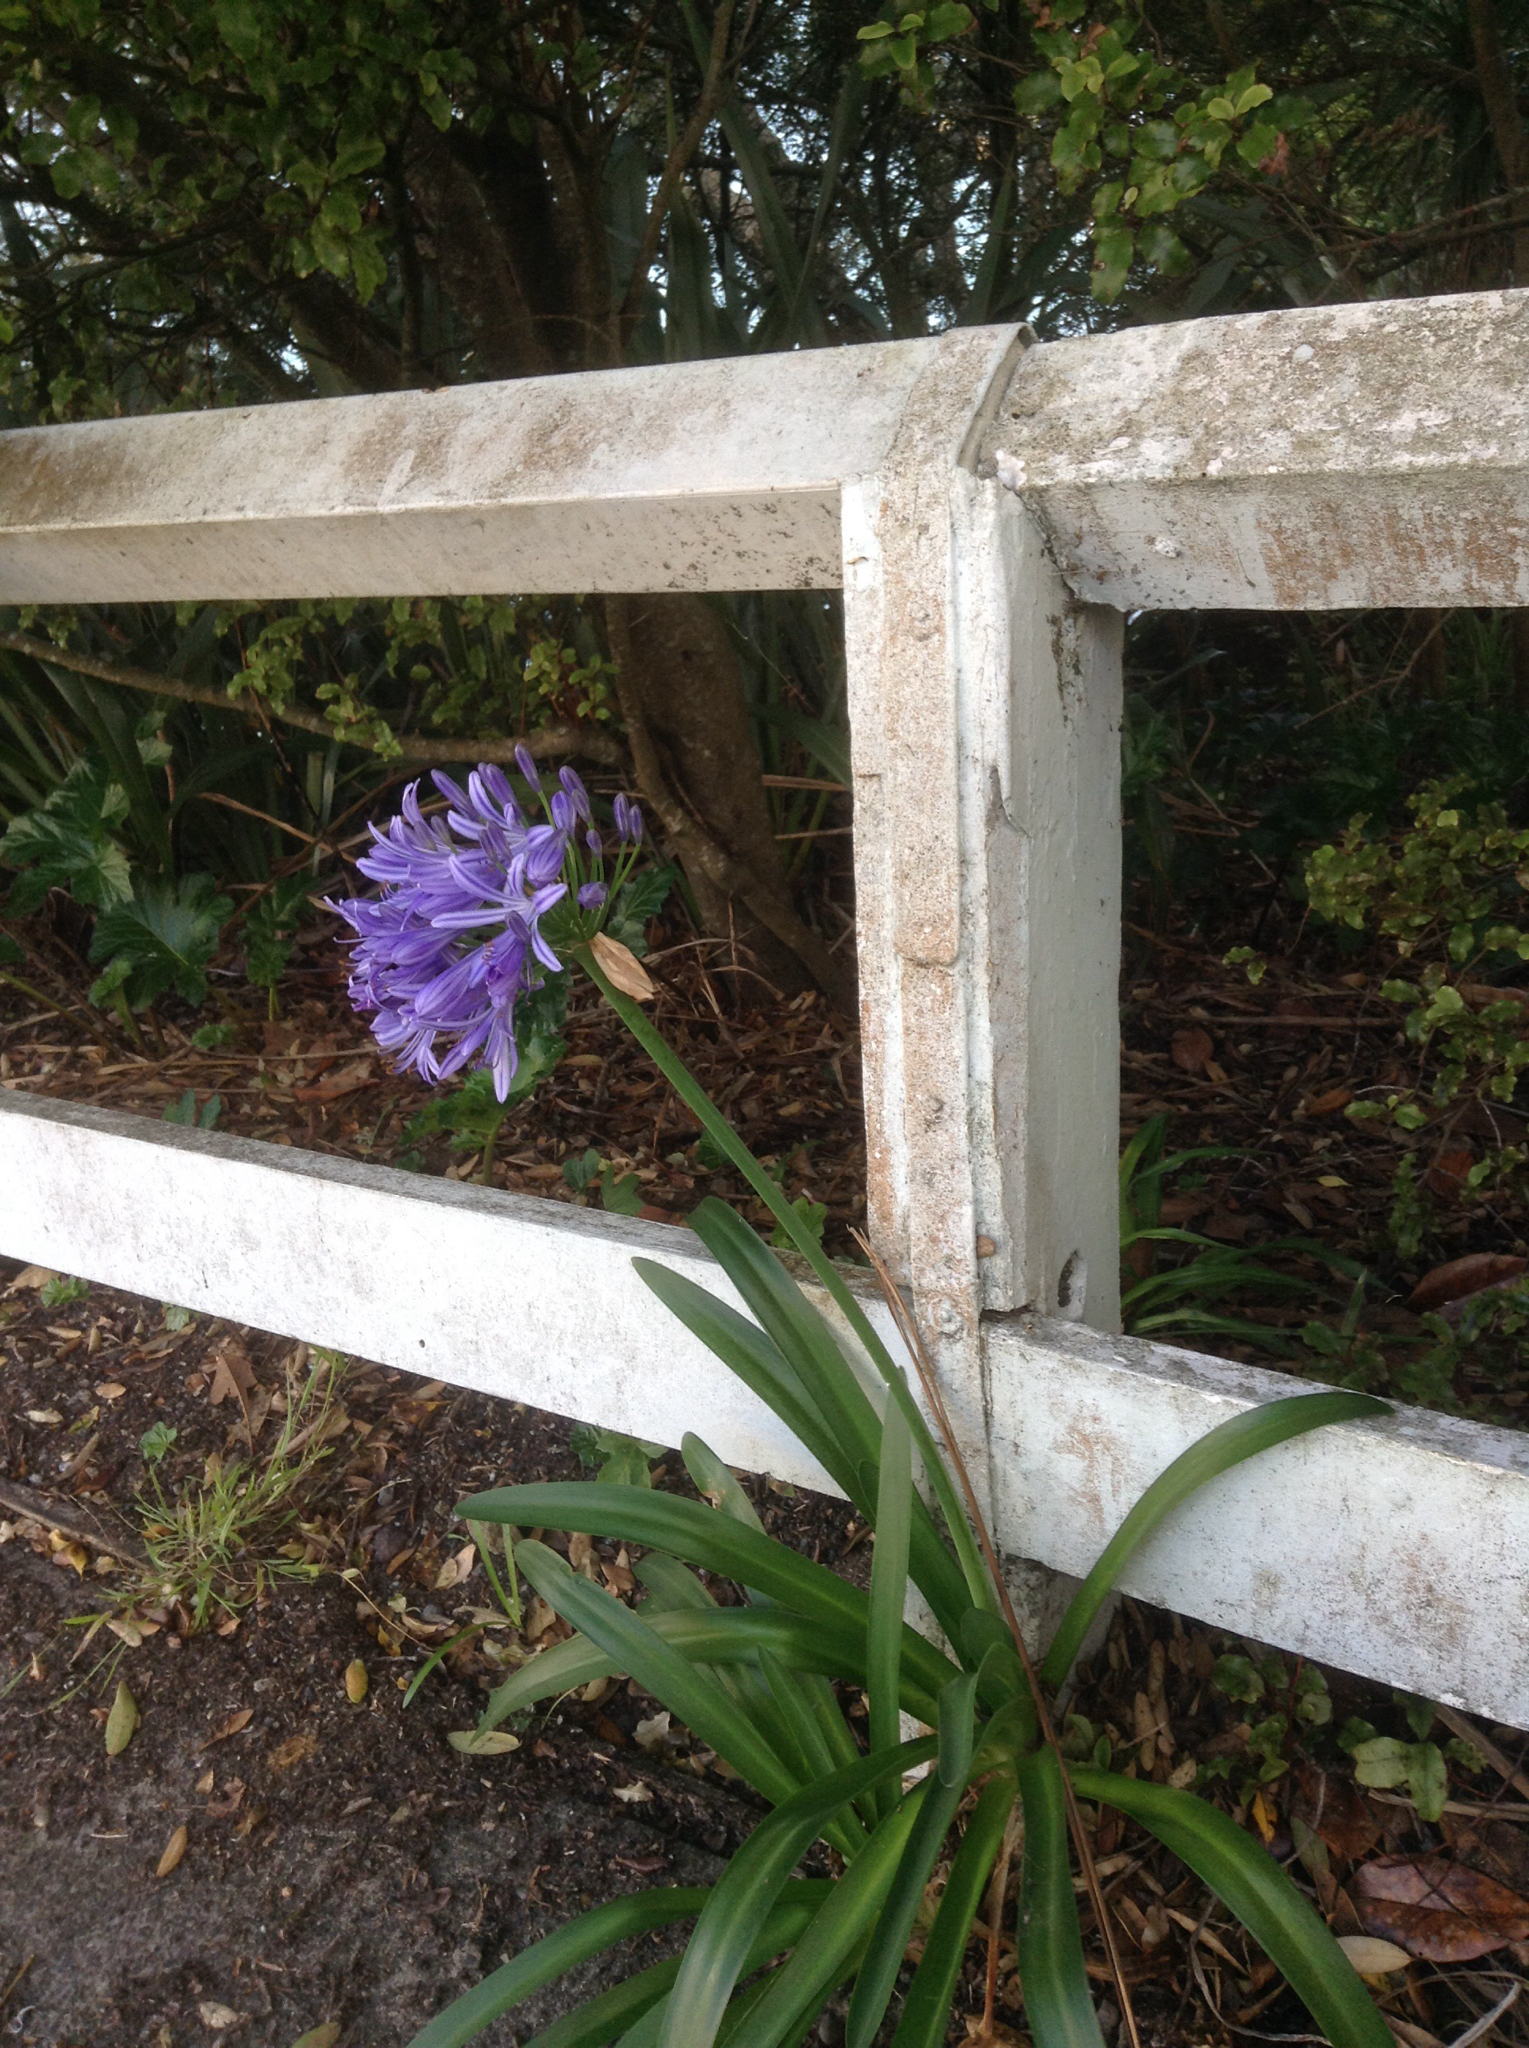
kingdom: Plantae
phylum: Tracheophyta
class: Liliopsida
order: Asparagales
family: Amaryllidaceae
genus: Agapanthus
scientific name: Agapanthus praecox
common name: African-lily
